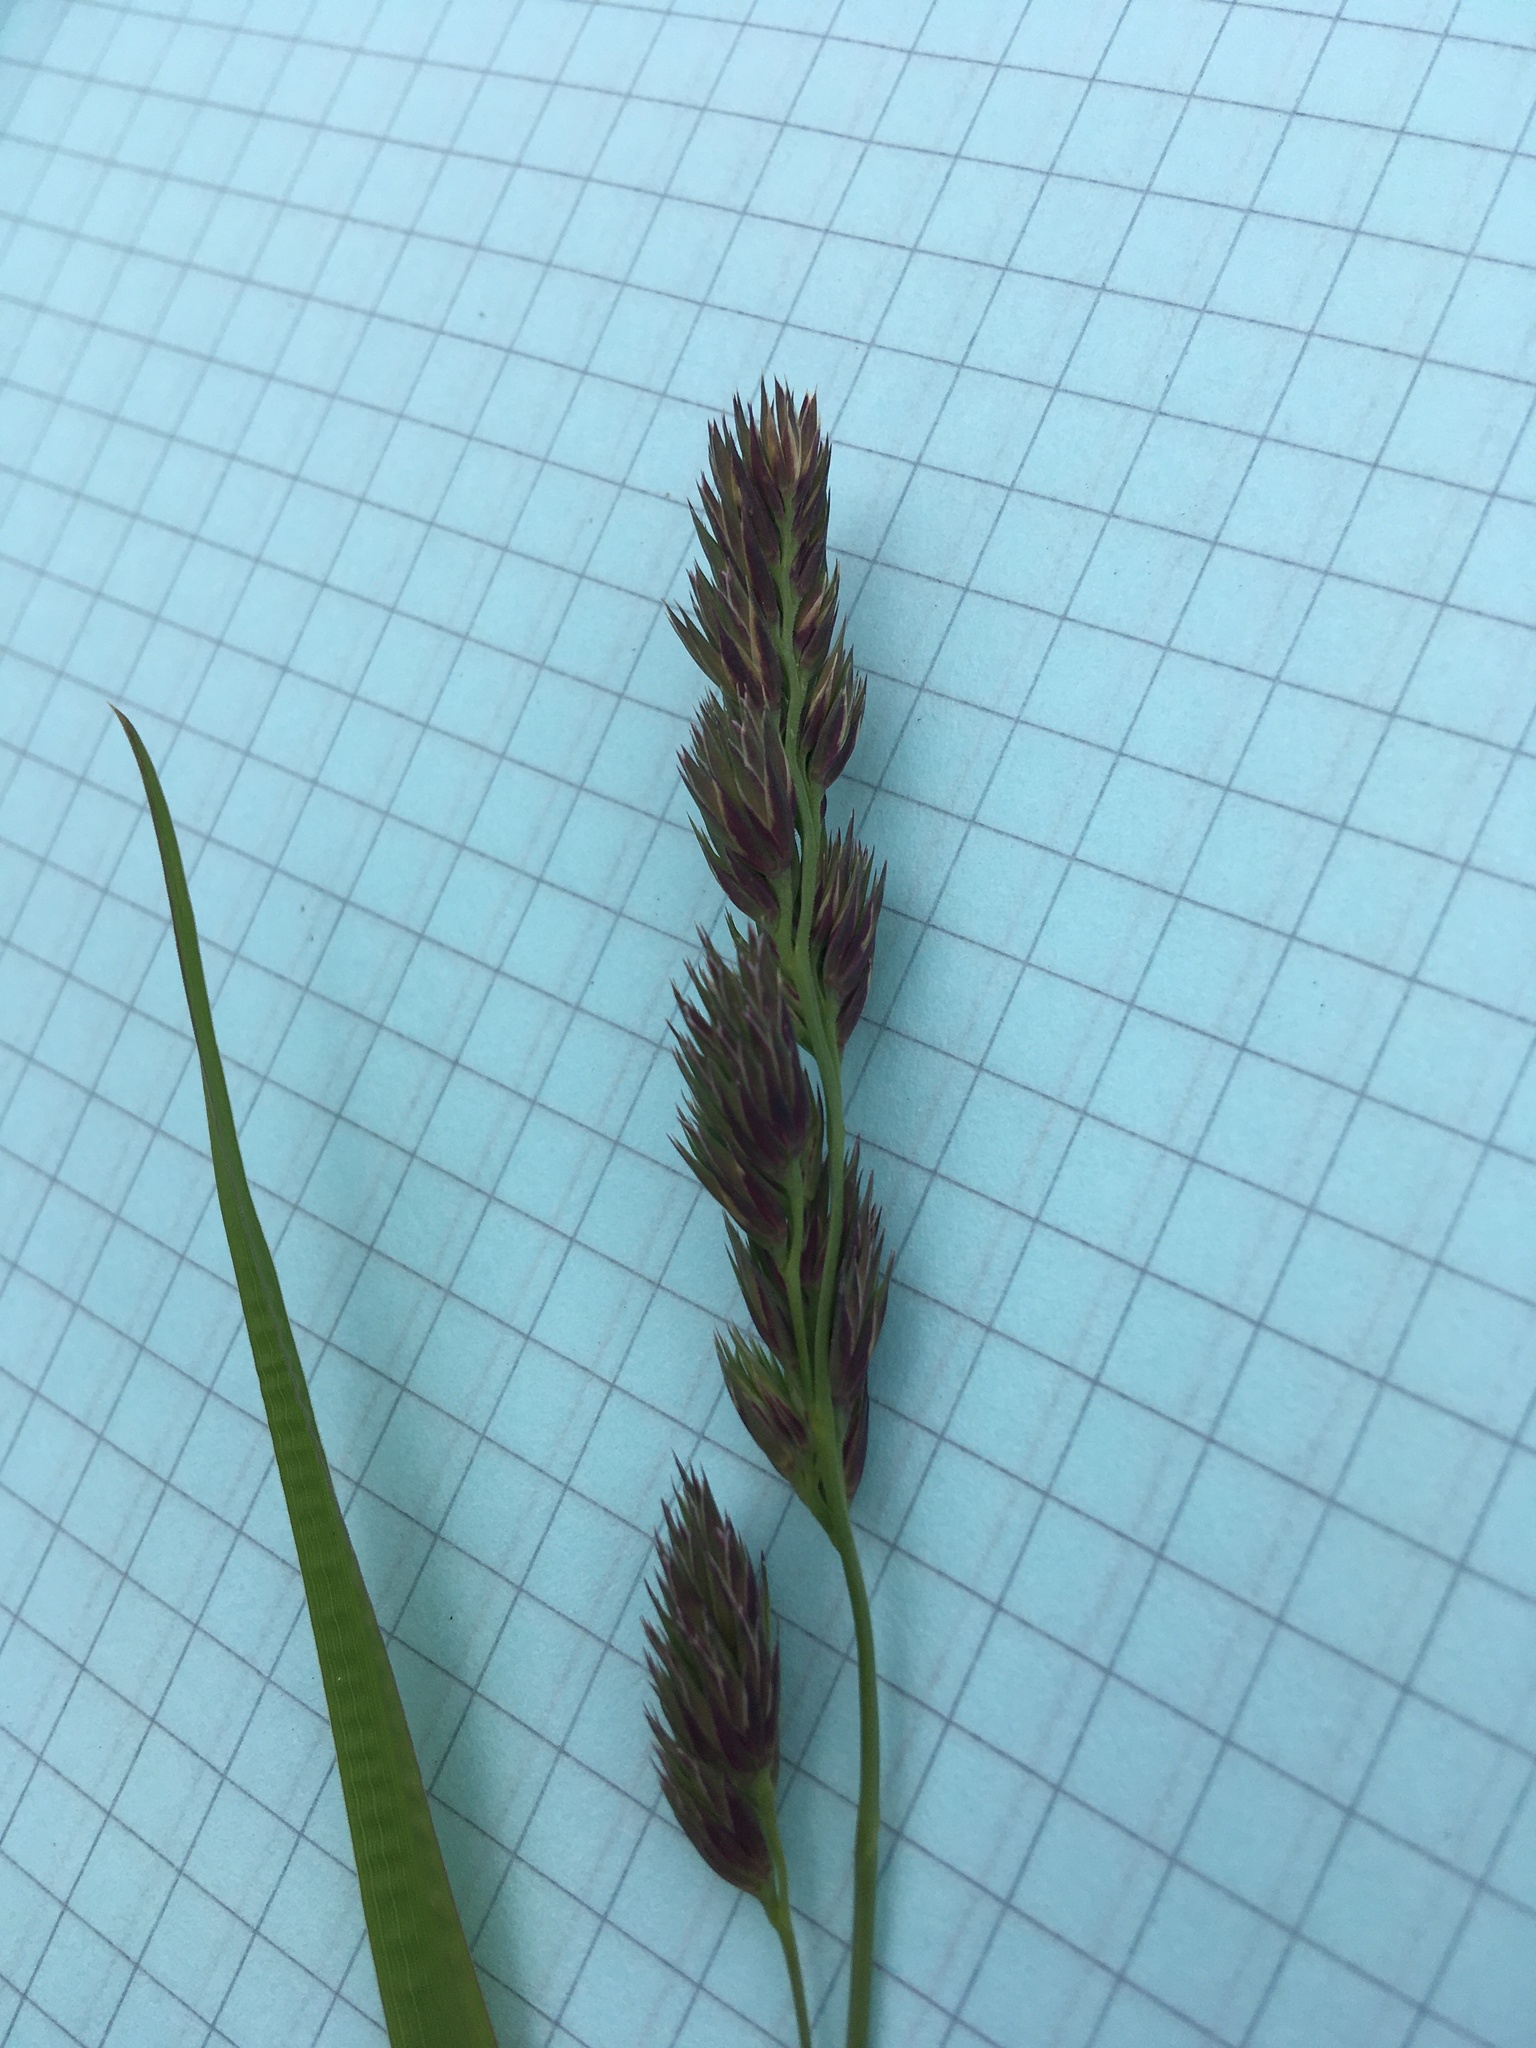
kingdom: Plantae
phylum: Tracheophyta
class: Liliopsida
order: Poales
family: Poaceae
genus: Dactylis
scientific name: Dactylis glomerata
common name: Orchardgrass
